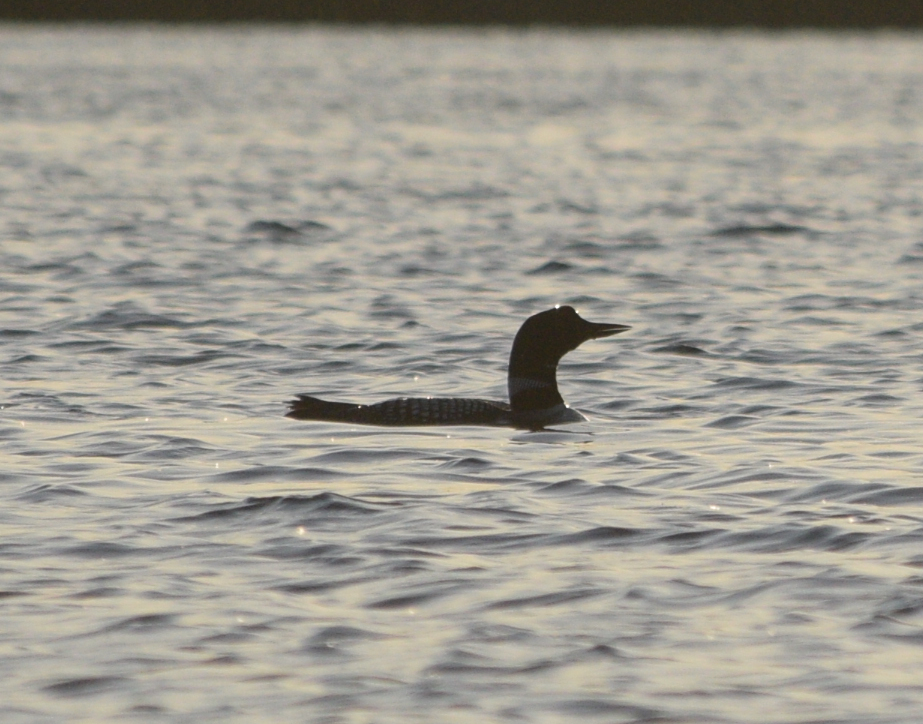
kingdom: Animalia
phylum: Chordata
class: Aves
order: Gaviiformes
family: Gaviidae
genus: Gavia
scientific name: Gavia immer
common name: Common loon
